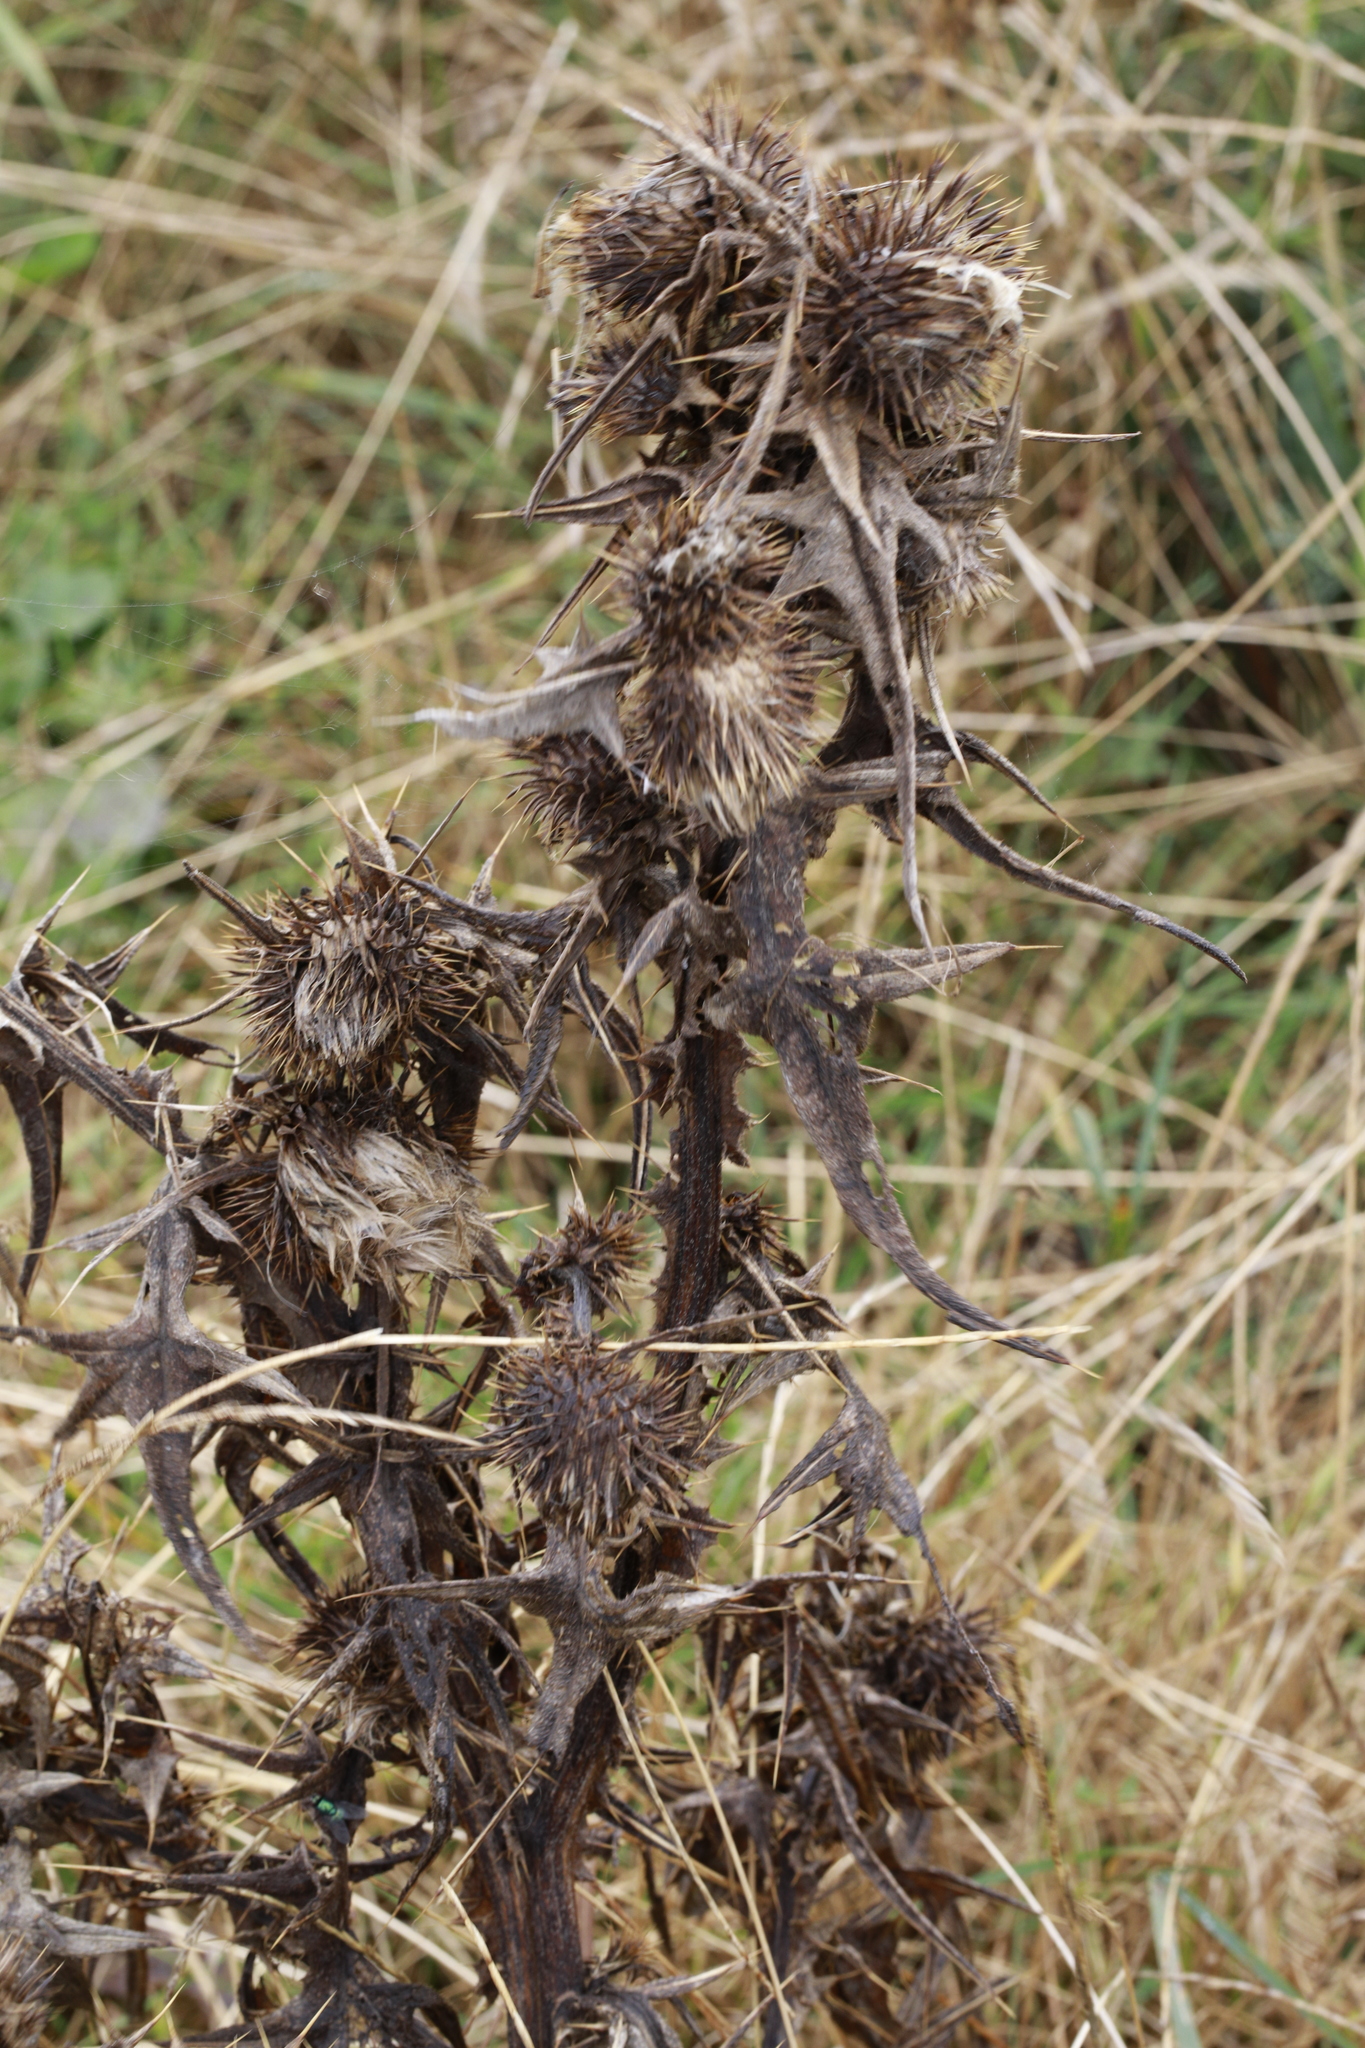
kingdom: Plantae
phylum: Tracheophyta
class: Magnoliopsida
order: Asterales
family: Asteraceae
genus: Cirsium
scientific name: Cirsium vulgare
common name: Bull thistle
